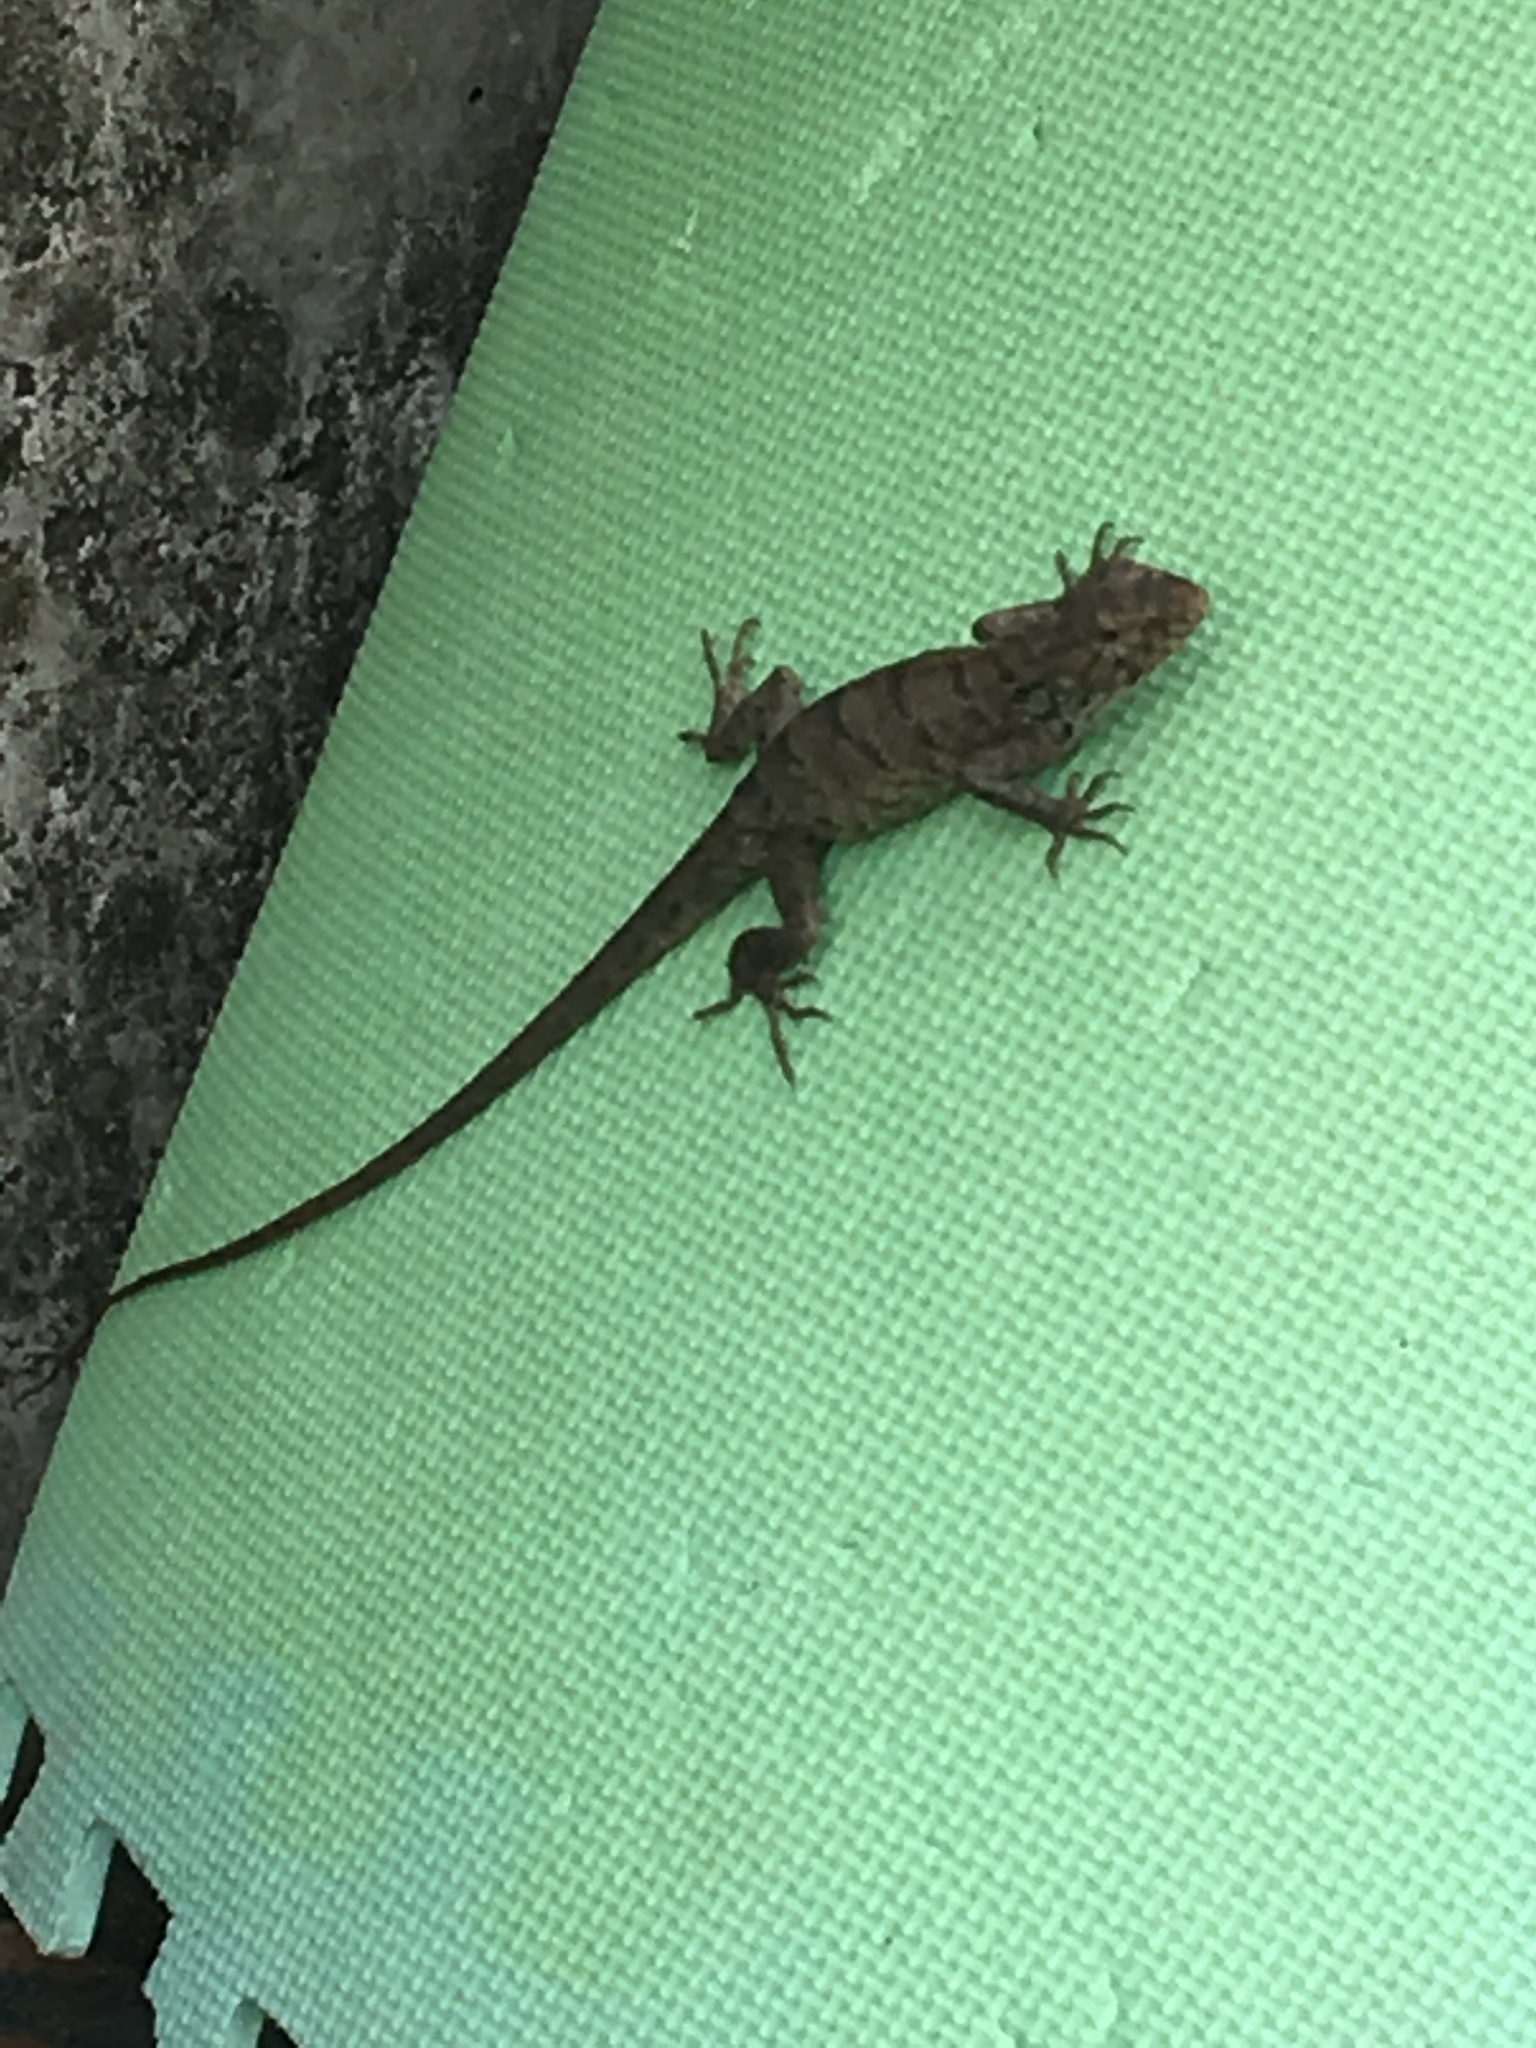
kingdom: Animalia
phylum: Chordata
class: Squamata
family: Agamidae
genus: Calotes
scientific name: Calotes versicolor
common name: Oriental garden lizard
